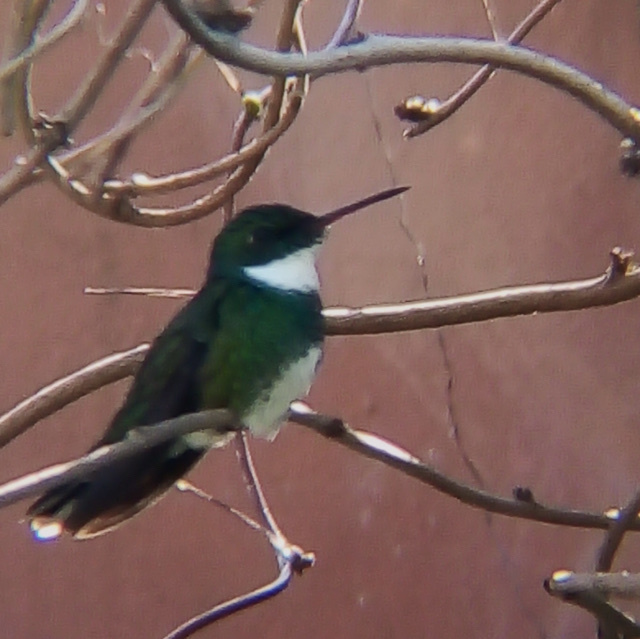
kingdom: Animalia
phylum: Chordata
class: Aves
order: Apodiformes
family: Trochilidae
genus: Leucochloris
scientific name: Leucochloris albicollis
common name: White-throated hummingbird
